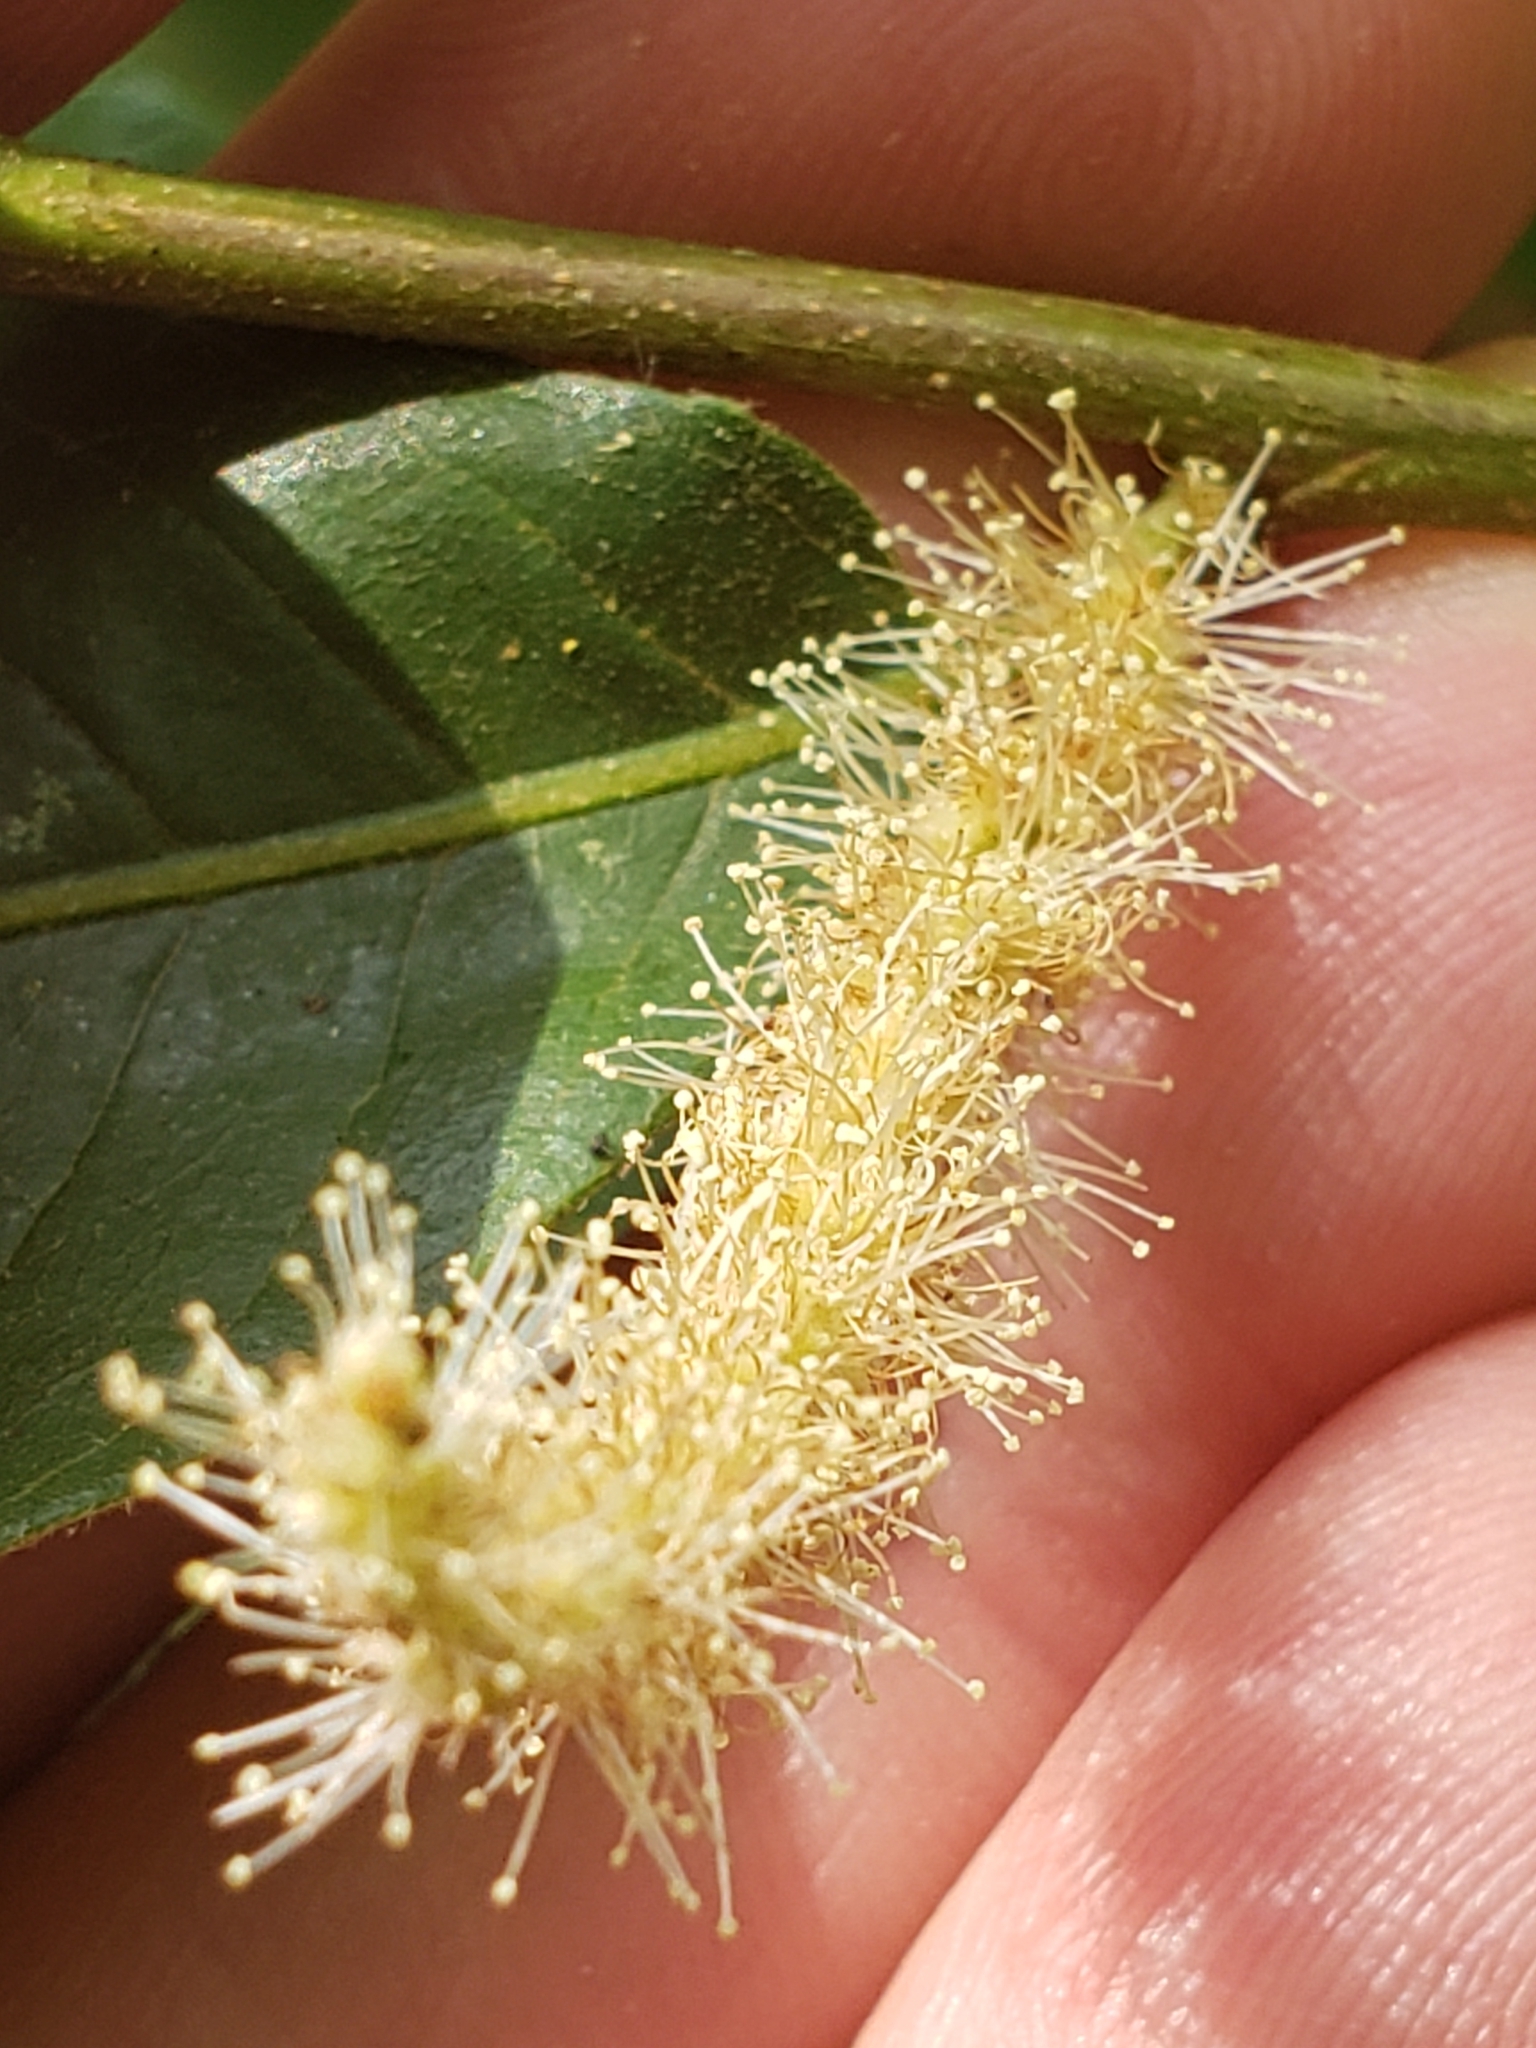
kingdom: Plantae
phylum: Tracheophyta
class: Magnoliopsida
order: Fagales
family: Fagaceae
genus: Castanea
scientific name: Castanea pumila
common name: Chinkapin
